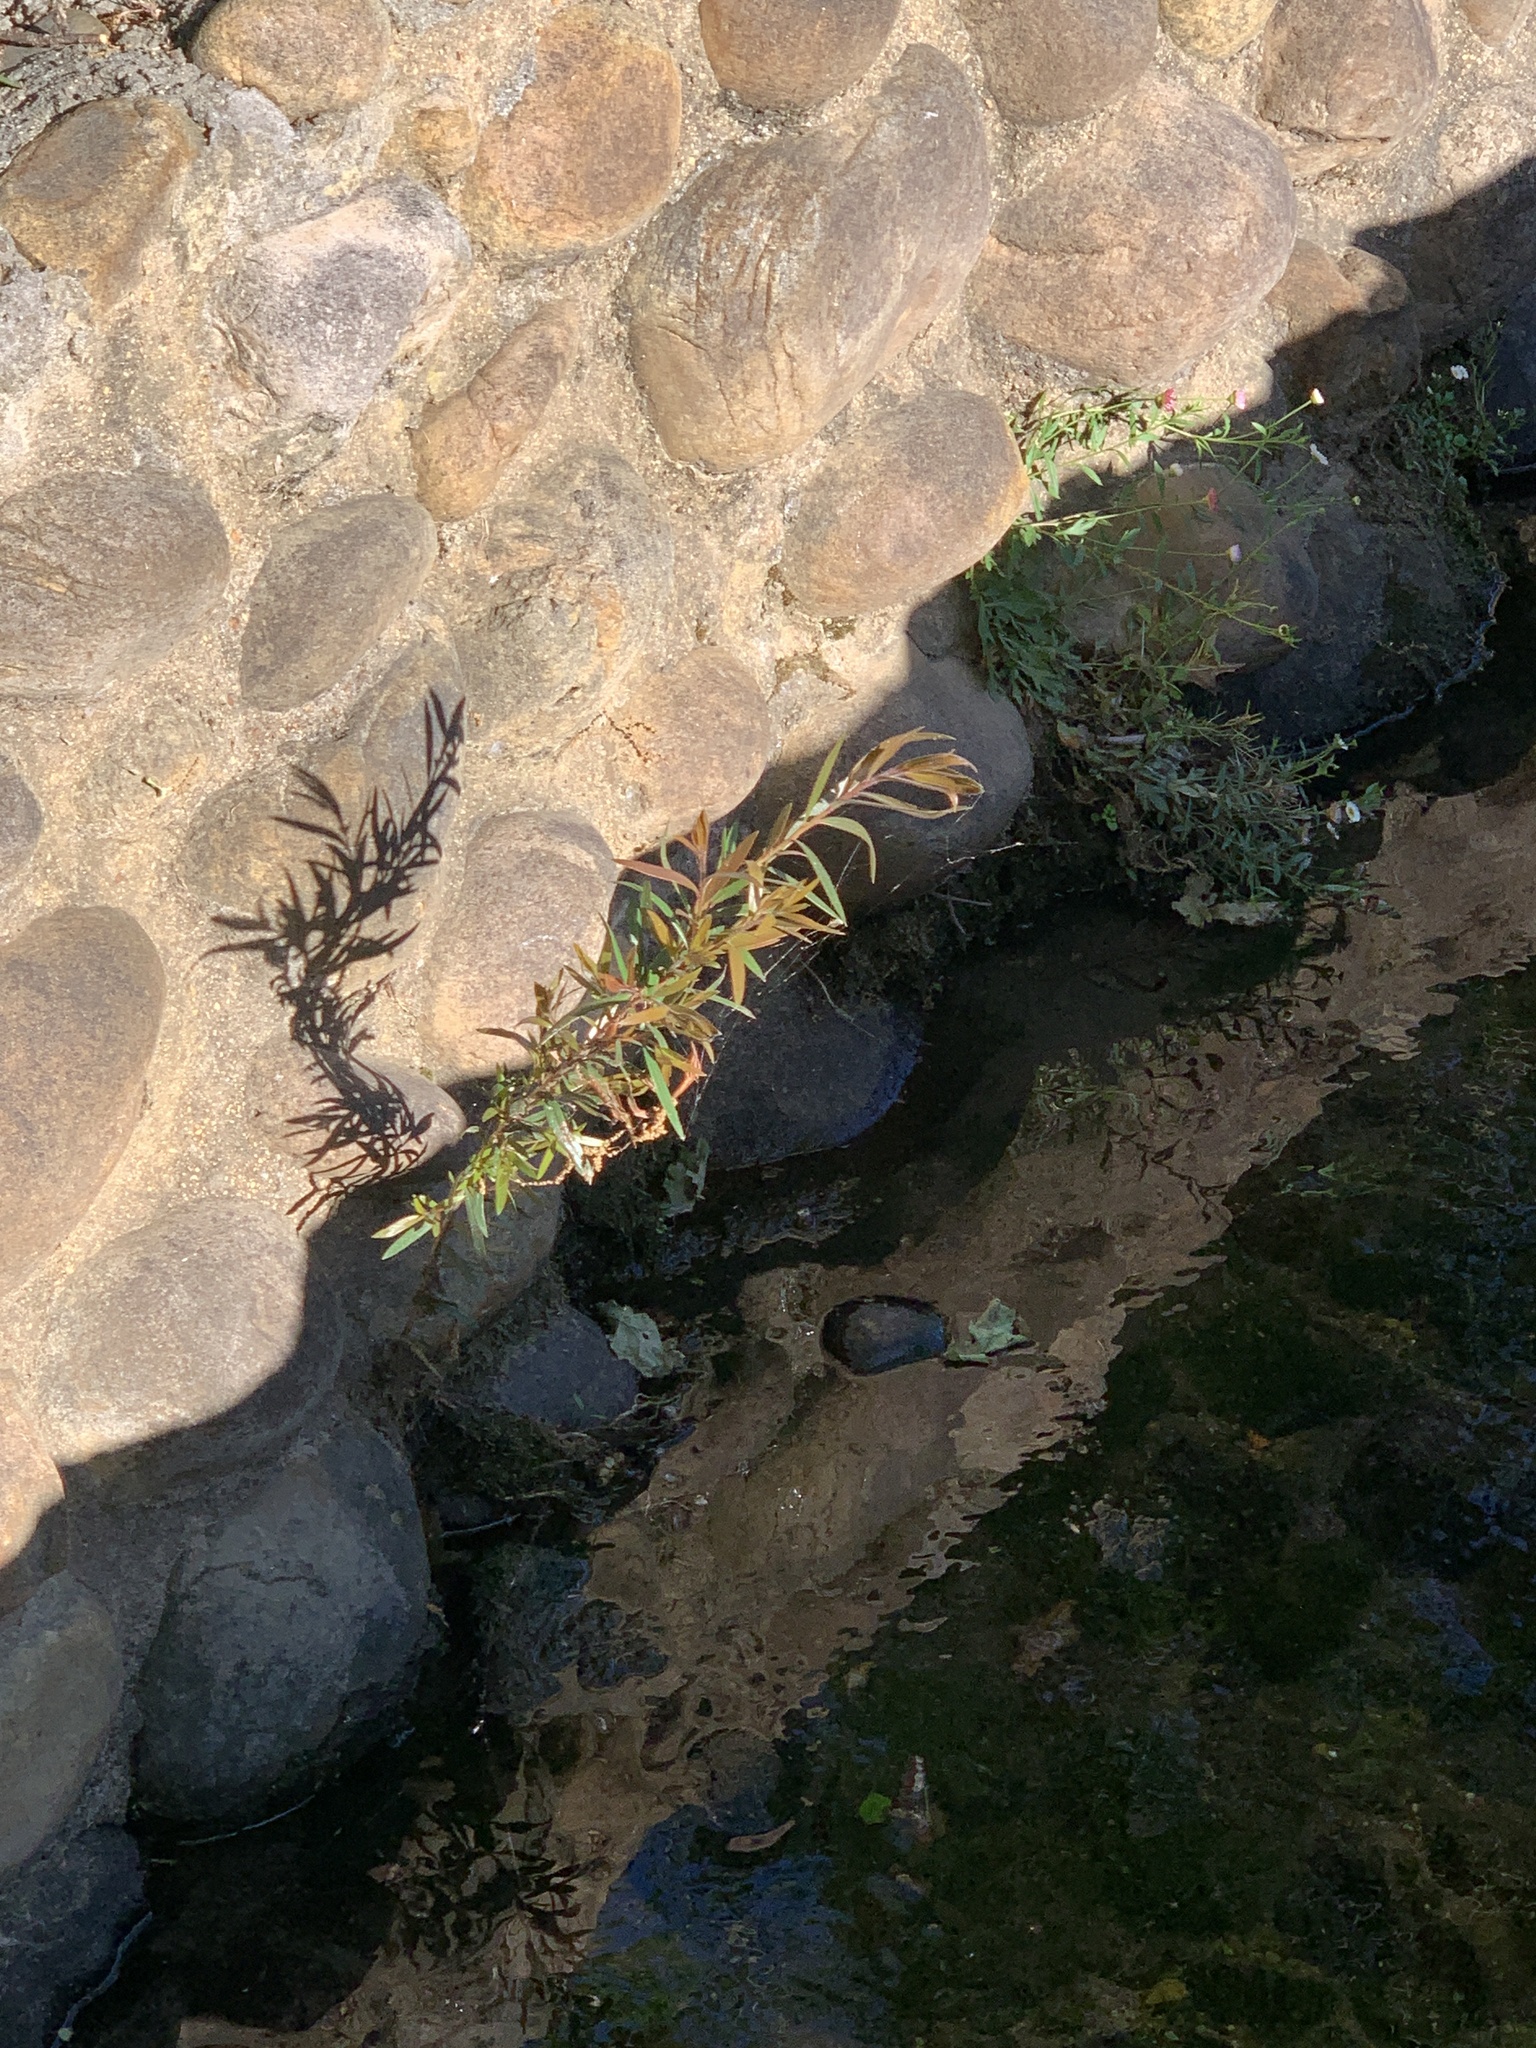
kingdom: Plantae
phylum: Tracheophyta
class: Magnoliopsida
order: Myrtales
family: Myrtaceae
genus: Callistemon
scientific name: Callistemon viminalis
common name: Drooping bottlebrush
